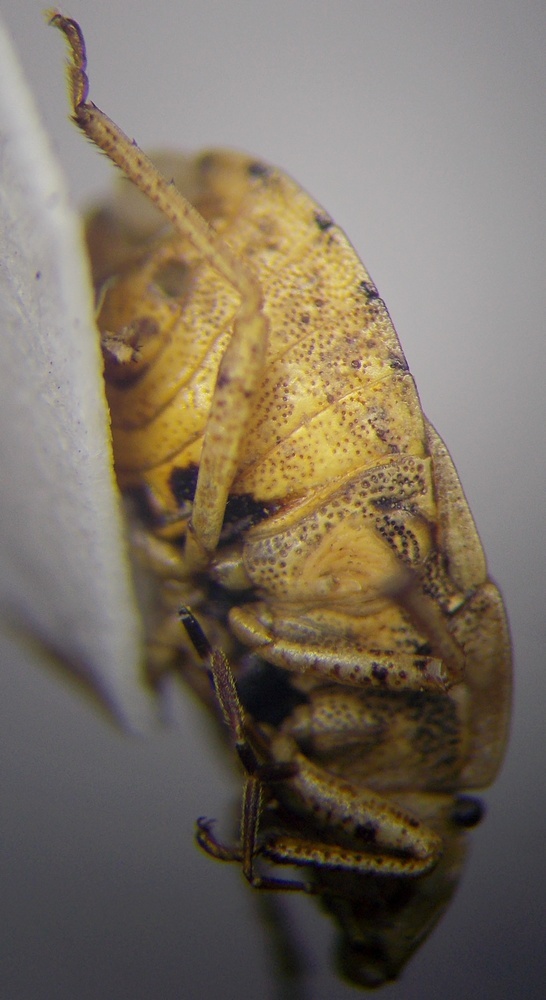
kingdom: Animalia
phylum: Arthropoda
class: Insecta
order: Hemiptera
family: Pentatomidae
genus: Sciocoris
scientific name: Sciocoris macrocephalus
